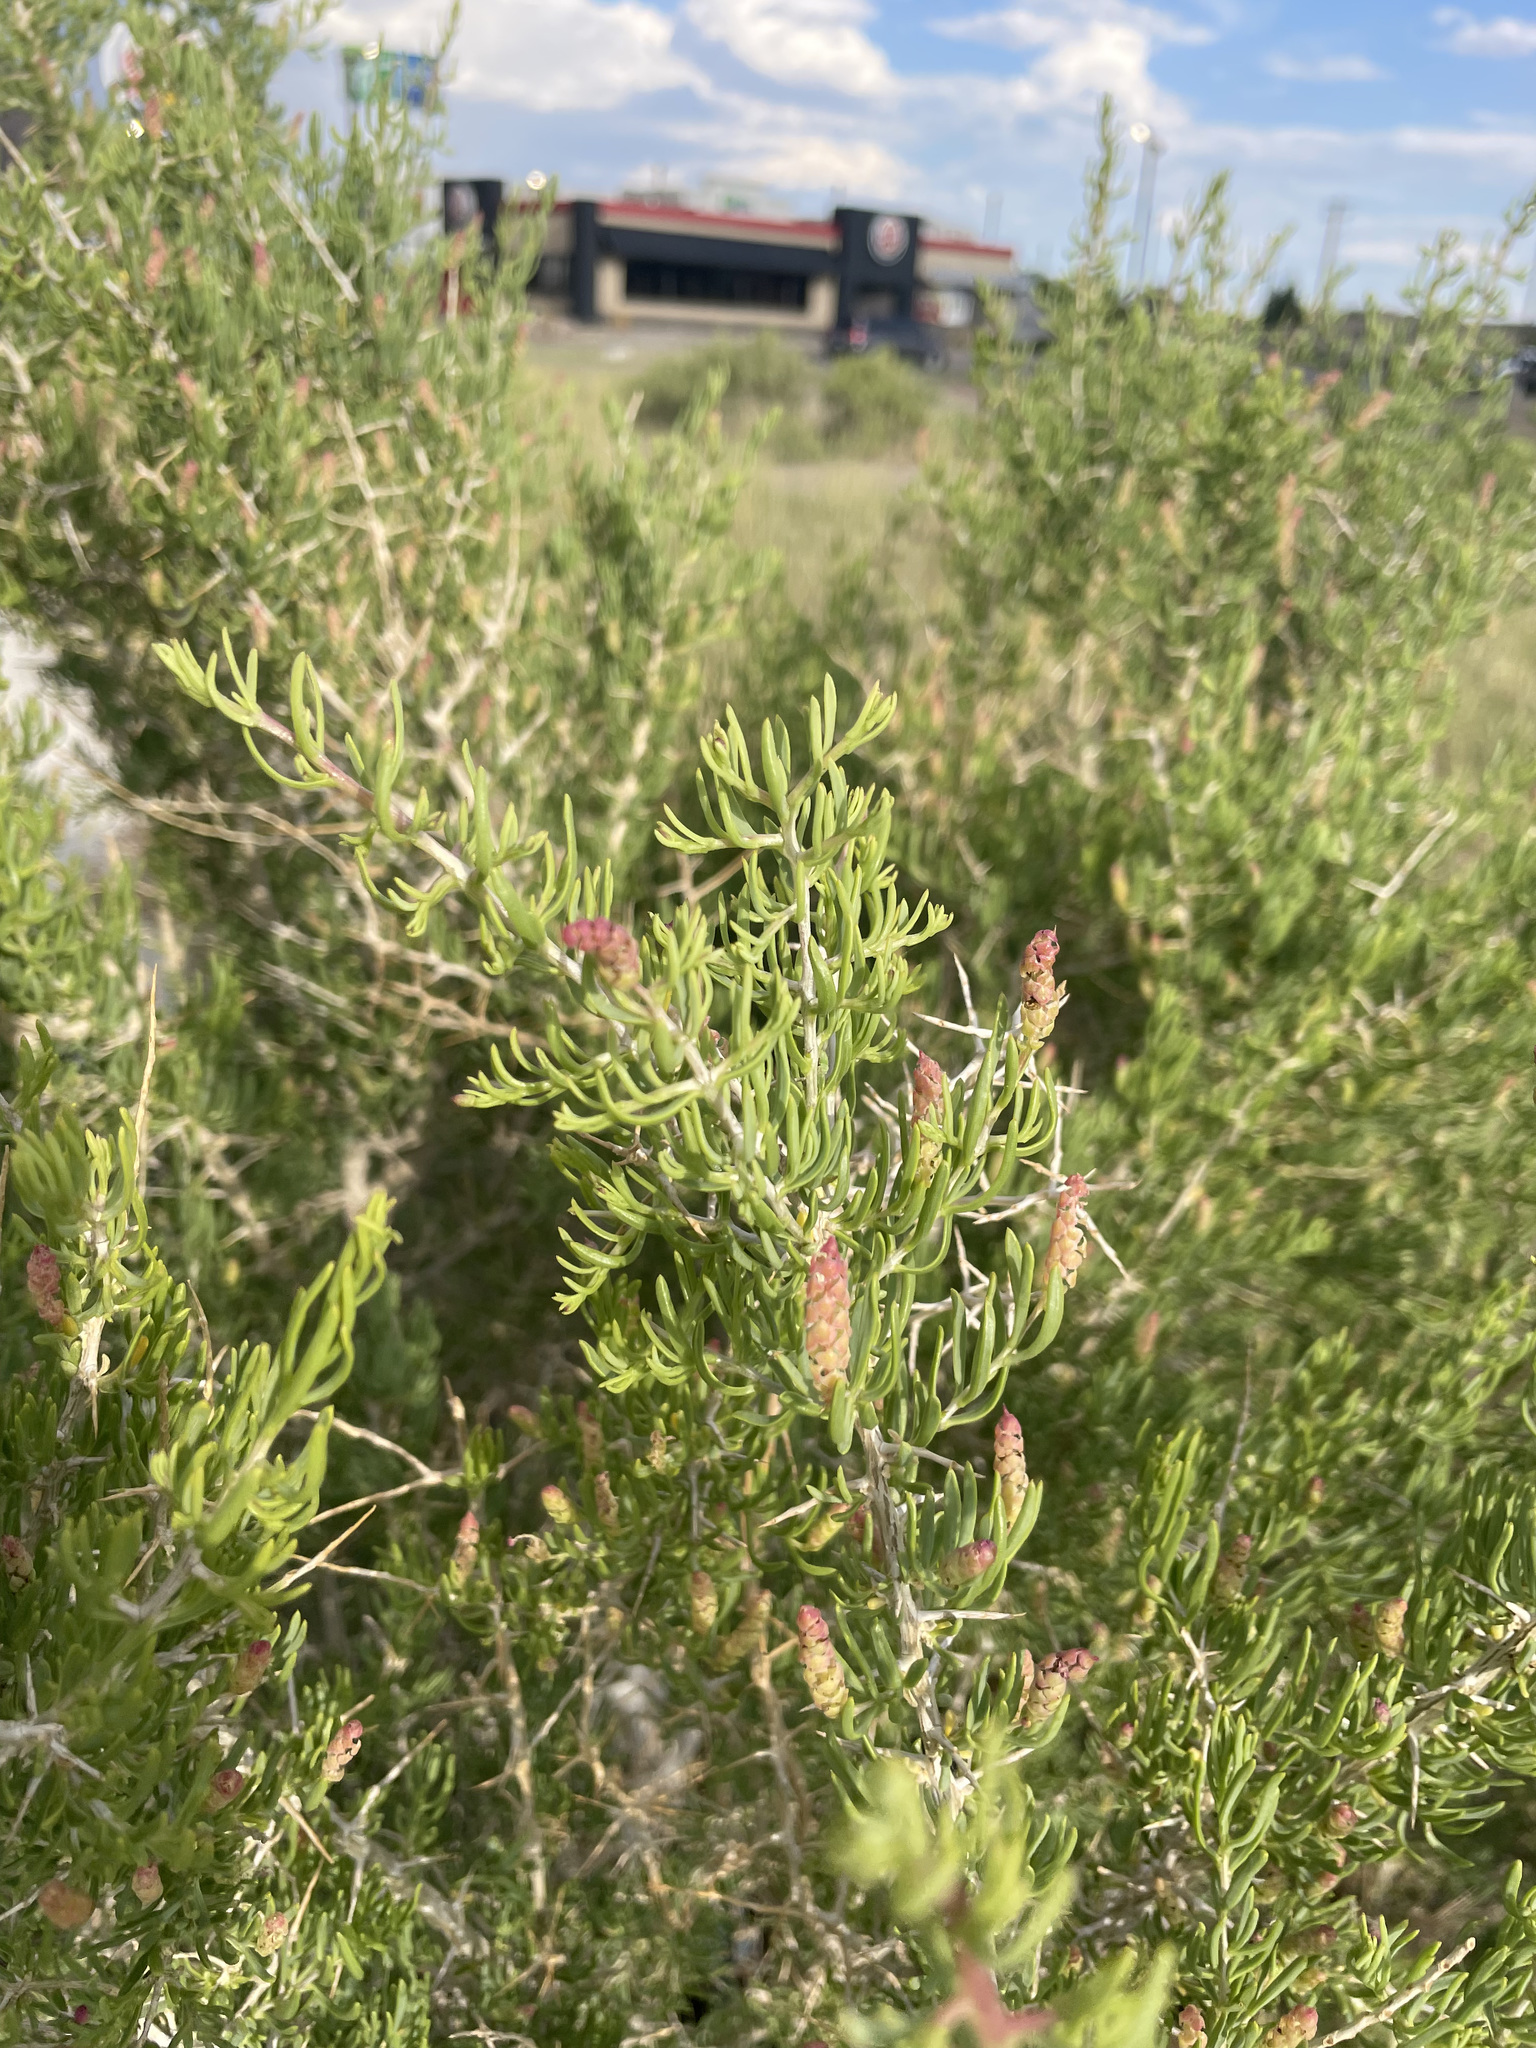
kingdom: Plantae
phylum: Tracheophyta
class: Magnoliopsida
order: Caryophyllales
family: Sarcobataceae
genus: Sarcobatus
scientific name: Sarcobatus vermiculatus
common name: Greasewood
